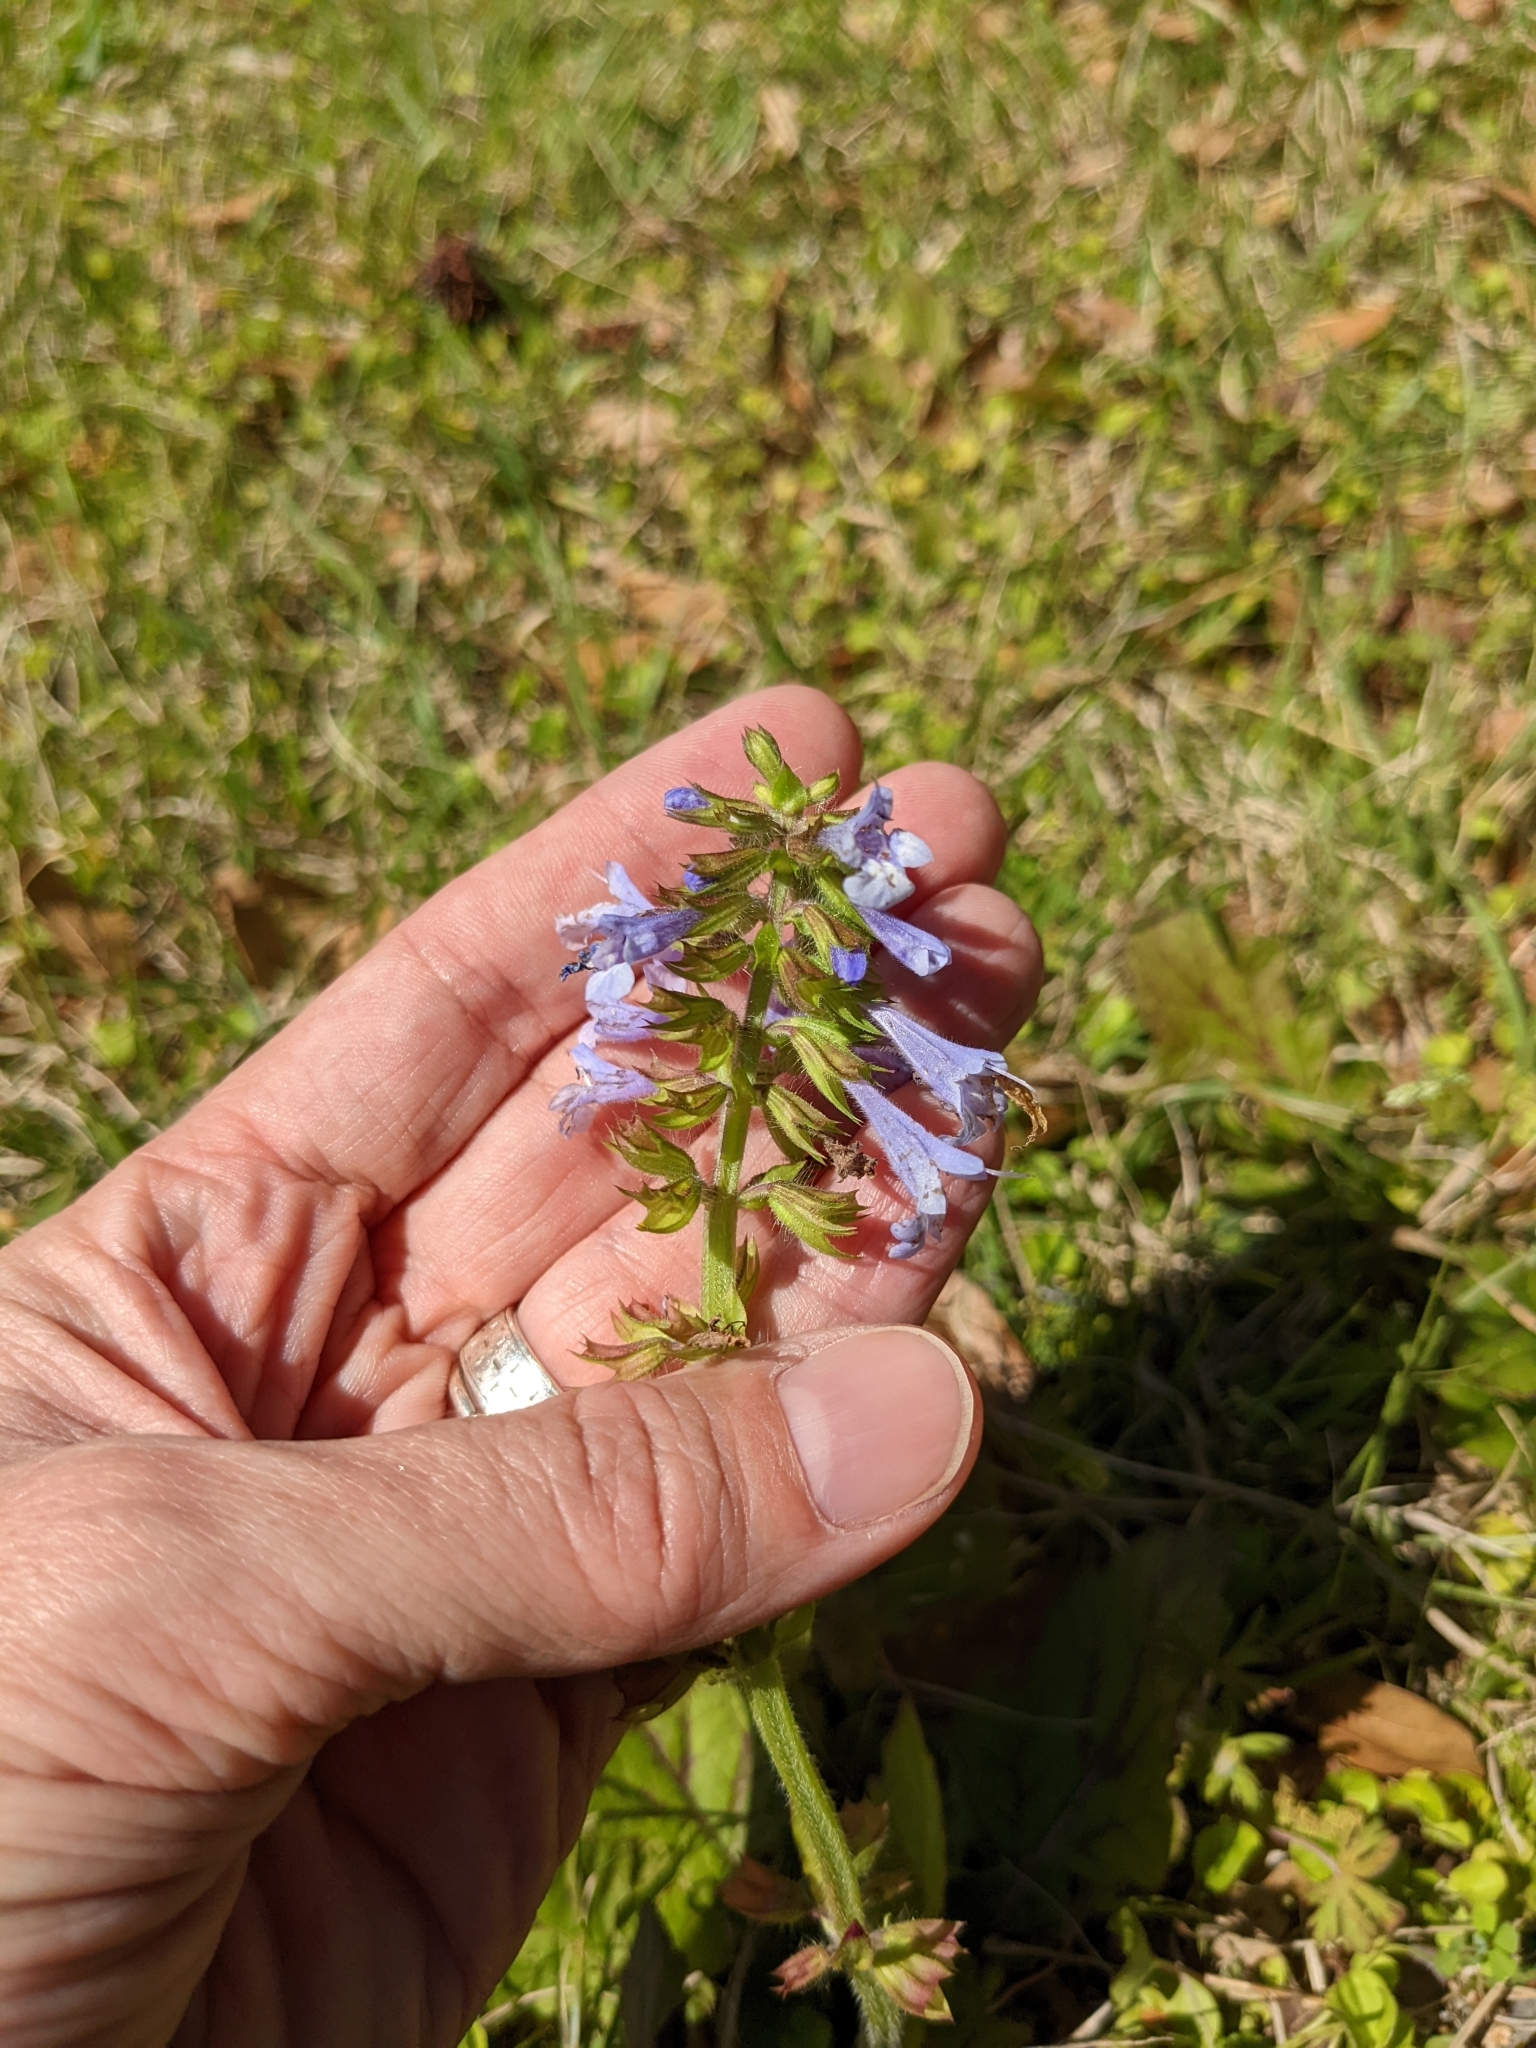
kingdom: Plantae
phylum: Tracheophyta
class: Magnoliopsida
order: Lamiales
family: Lamiaceae
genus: Salvia
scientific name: Salvia lyrata
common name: Cancerweed
